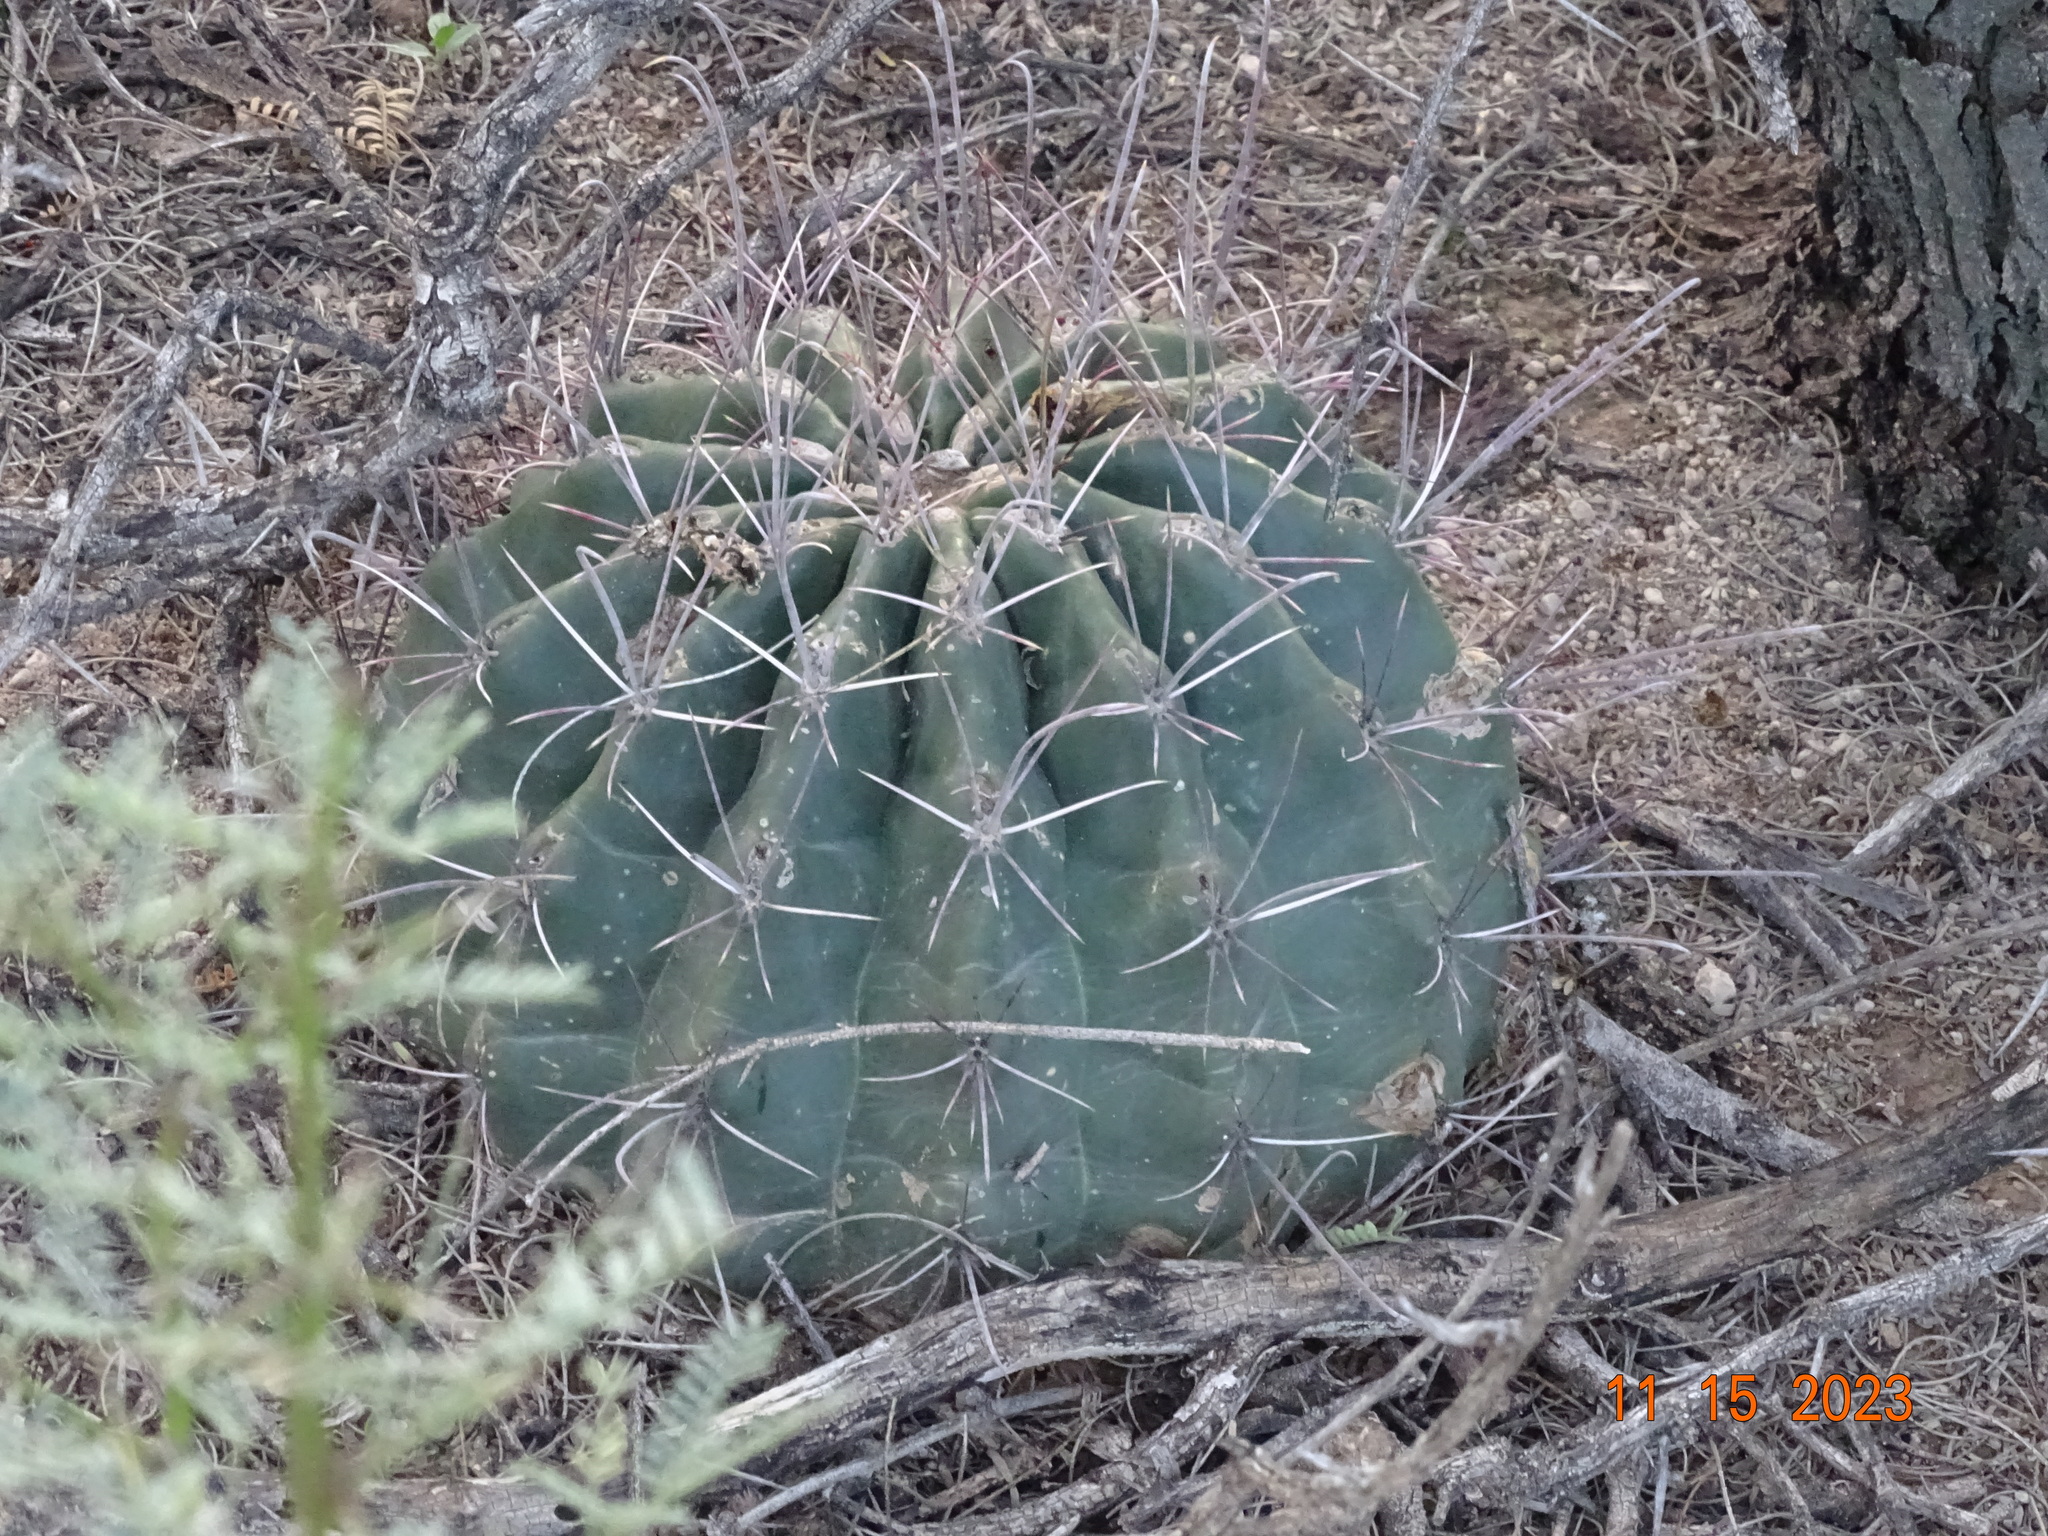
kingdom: Plantae
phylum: Tracheophyta
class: Magnoliopsida
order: Caryophyllales
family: Cactaceae
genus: Bisnaga
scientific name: Bisnaga hamatacantha
